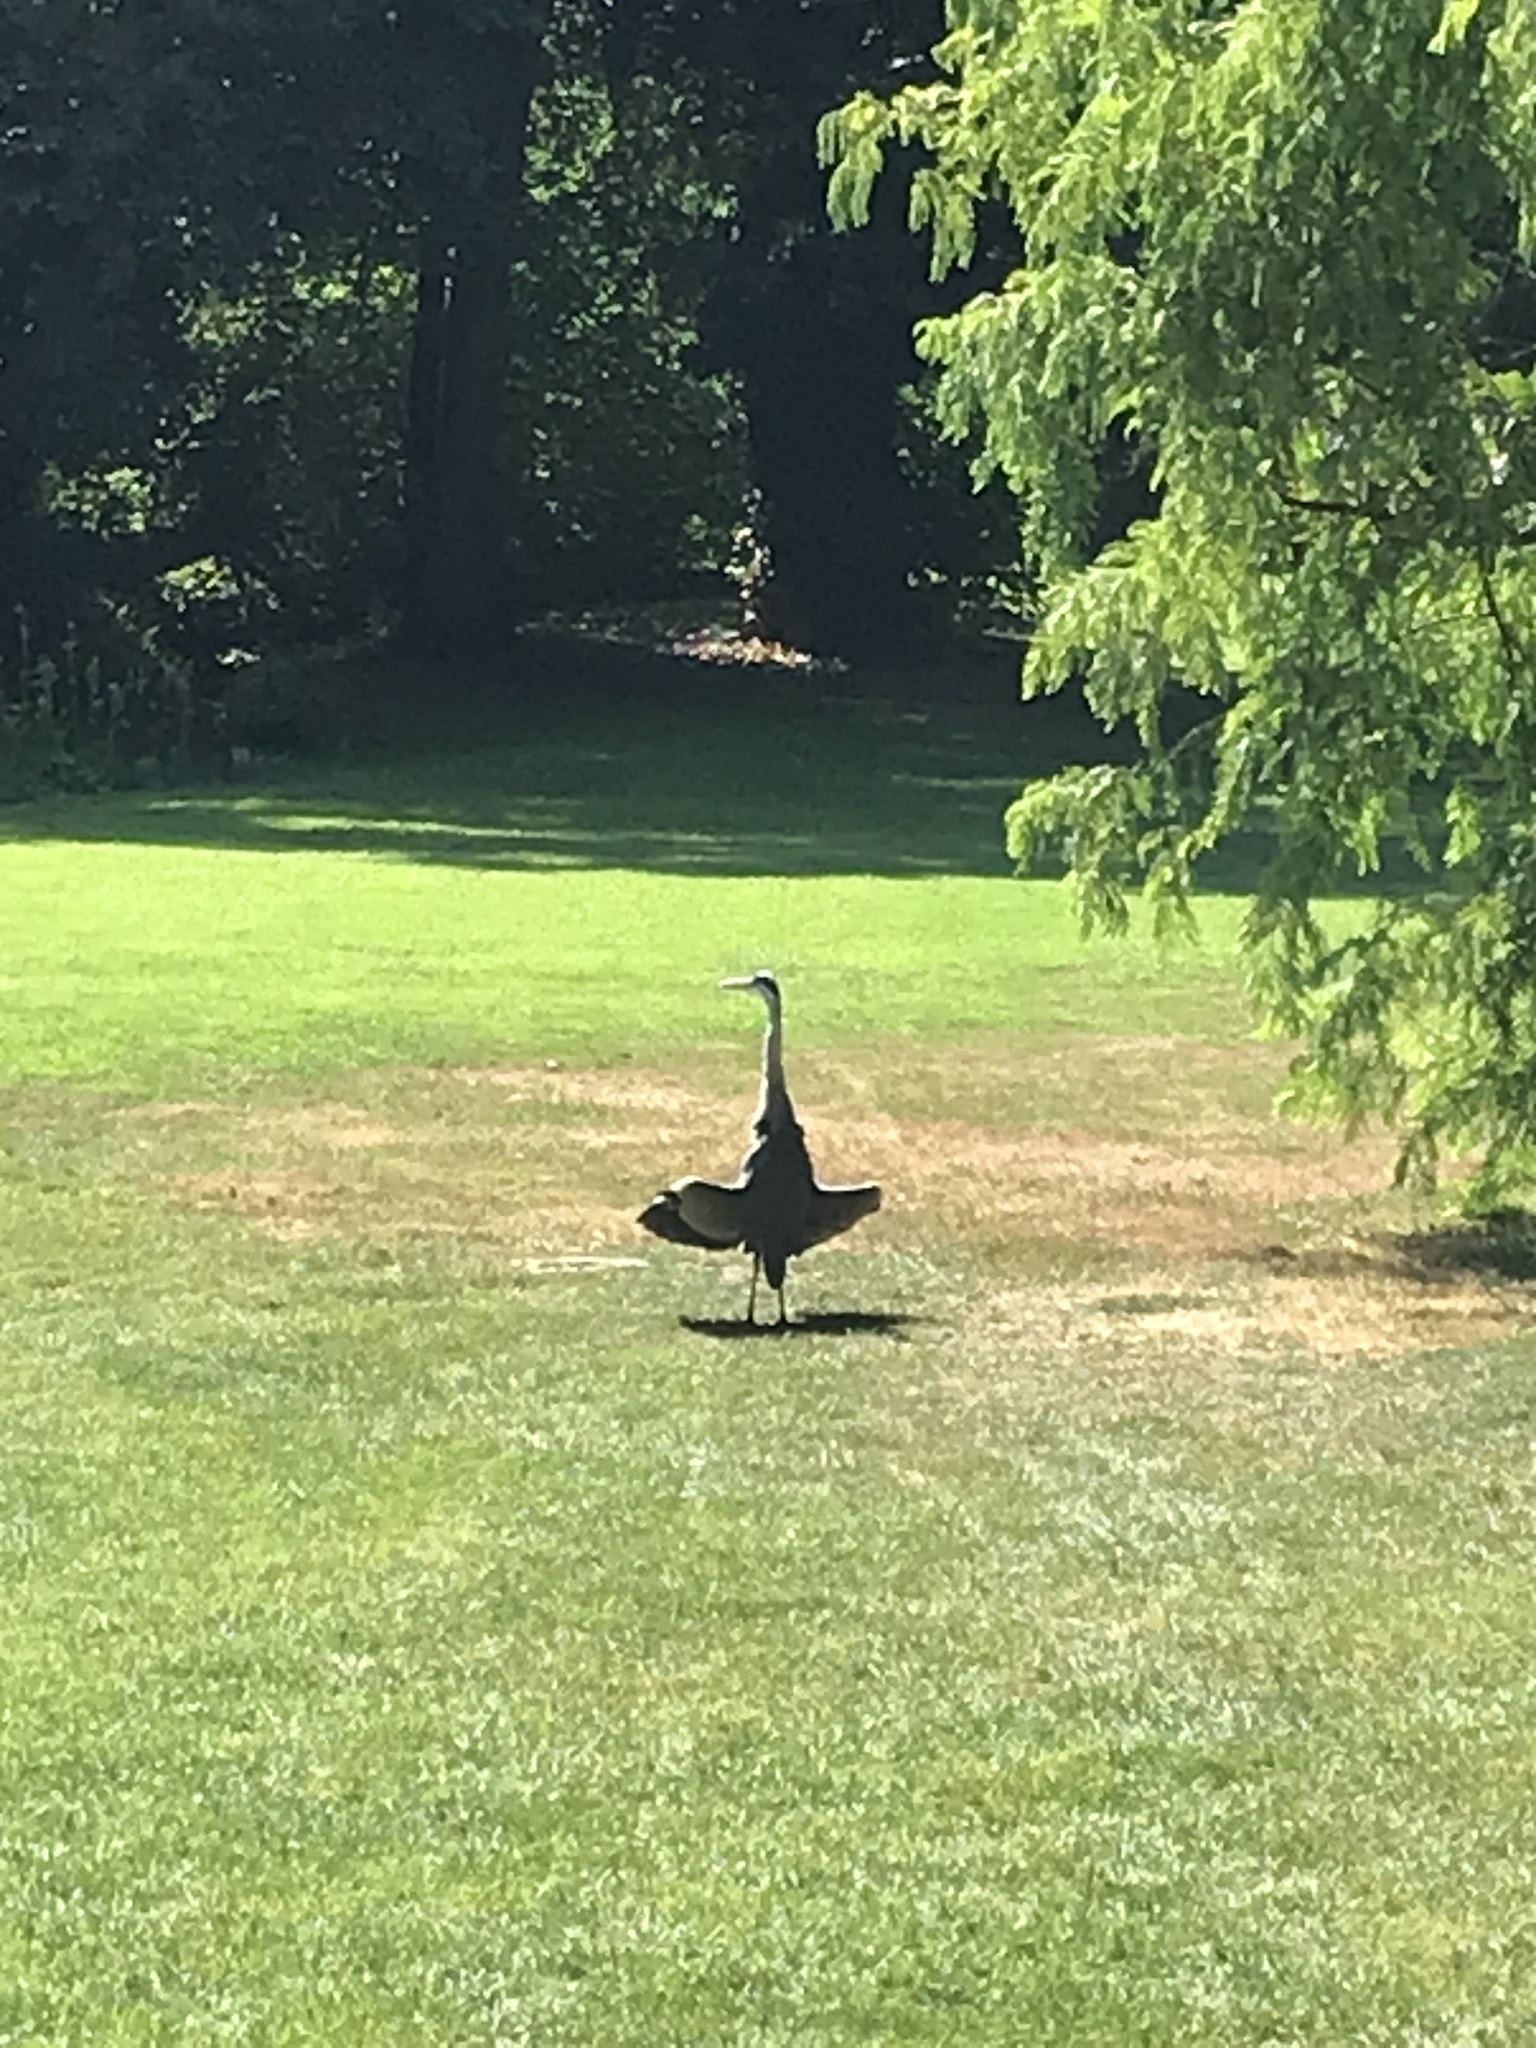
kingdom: Animalia
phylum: Chordata
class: Aves
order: Pelecaniformes
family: Ardeidae
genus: Ardea
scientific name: Ardea cinerea
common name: Grey heron
